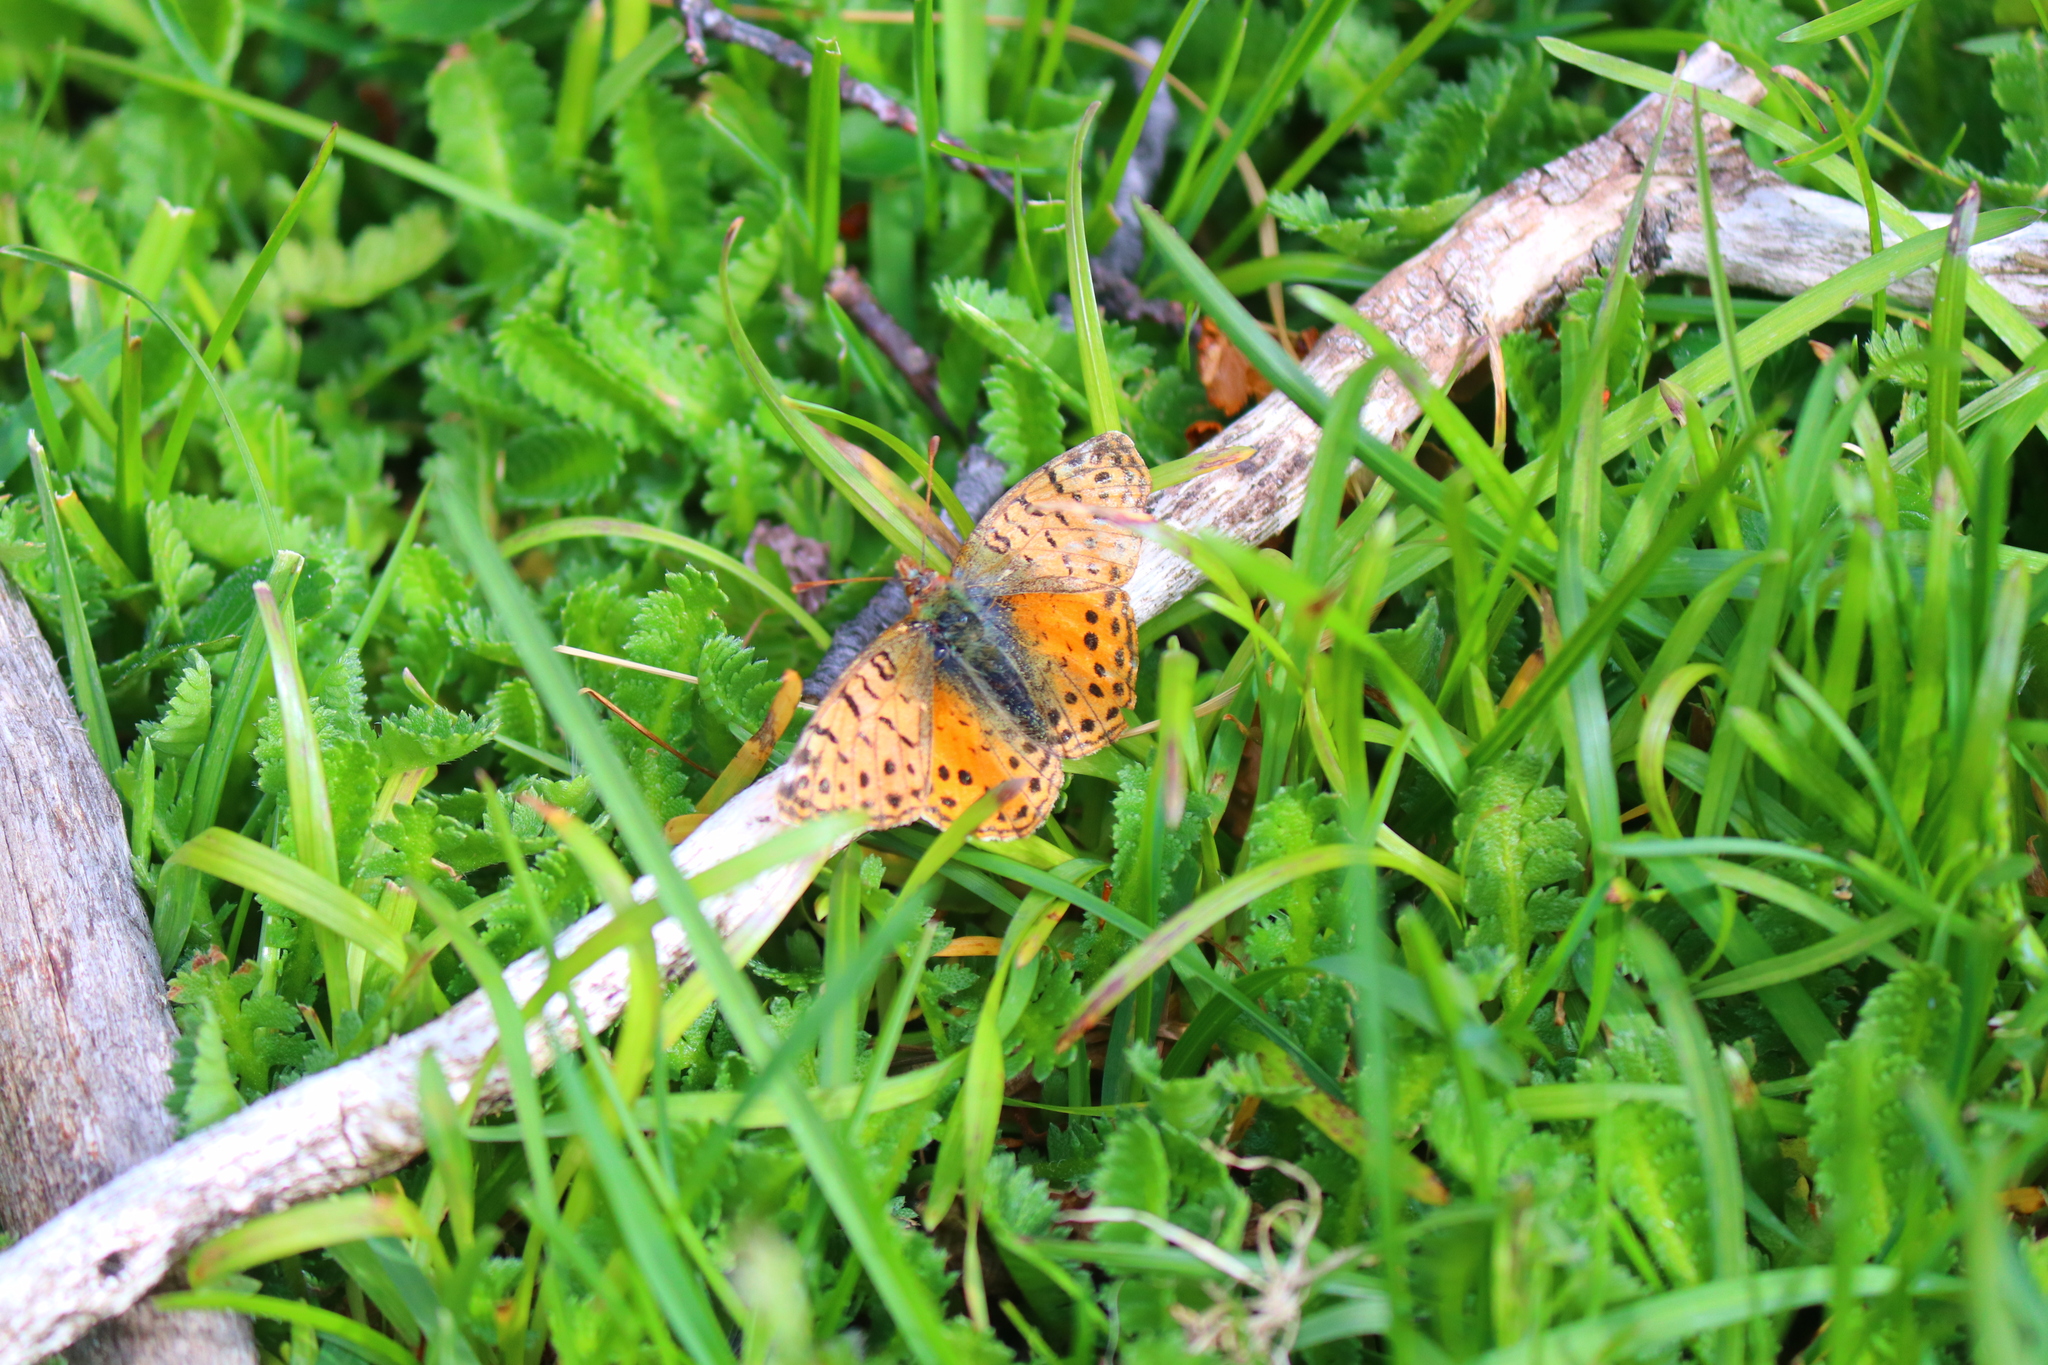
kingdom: Animalia
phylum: Arthropoda
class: Insecta
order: Lepidoptera
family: Nymphalidae
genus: Issoria
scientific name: Issoria Yramea cytheris
